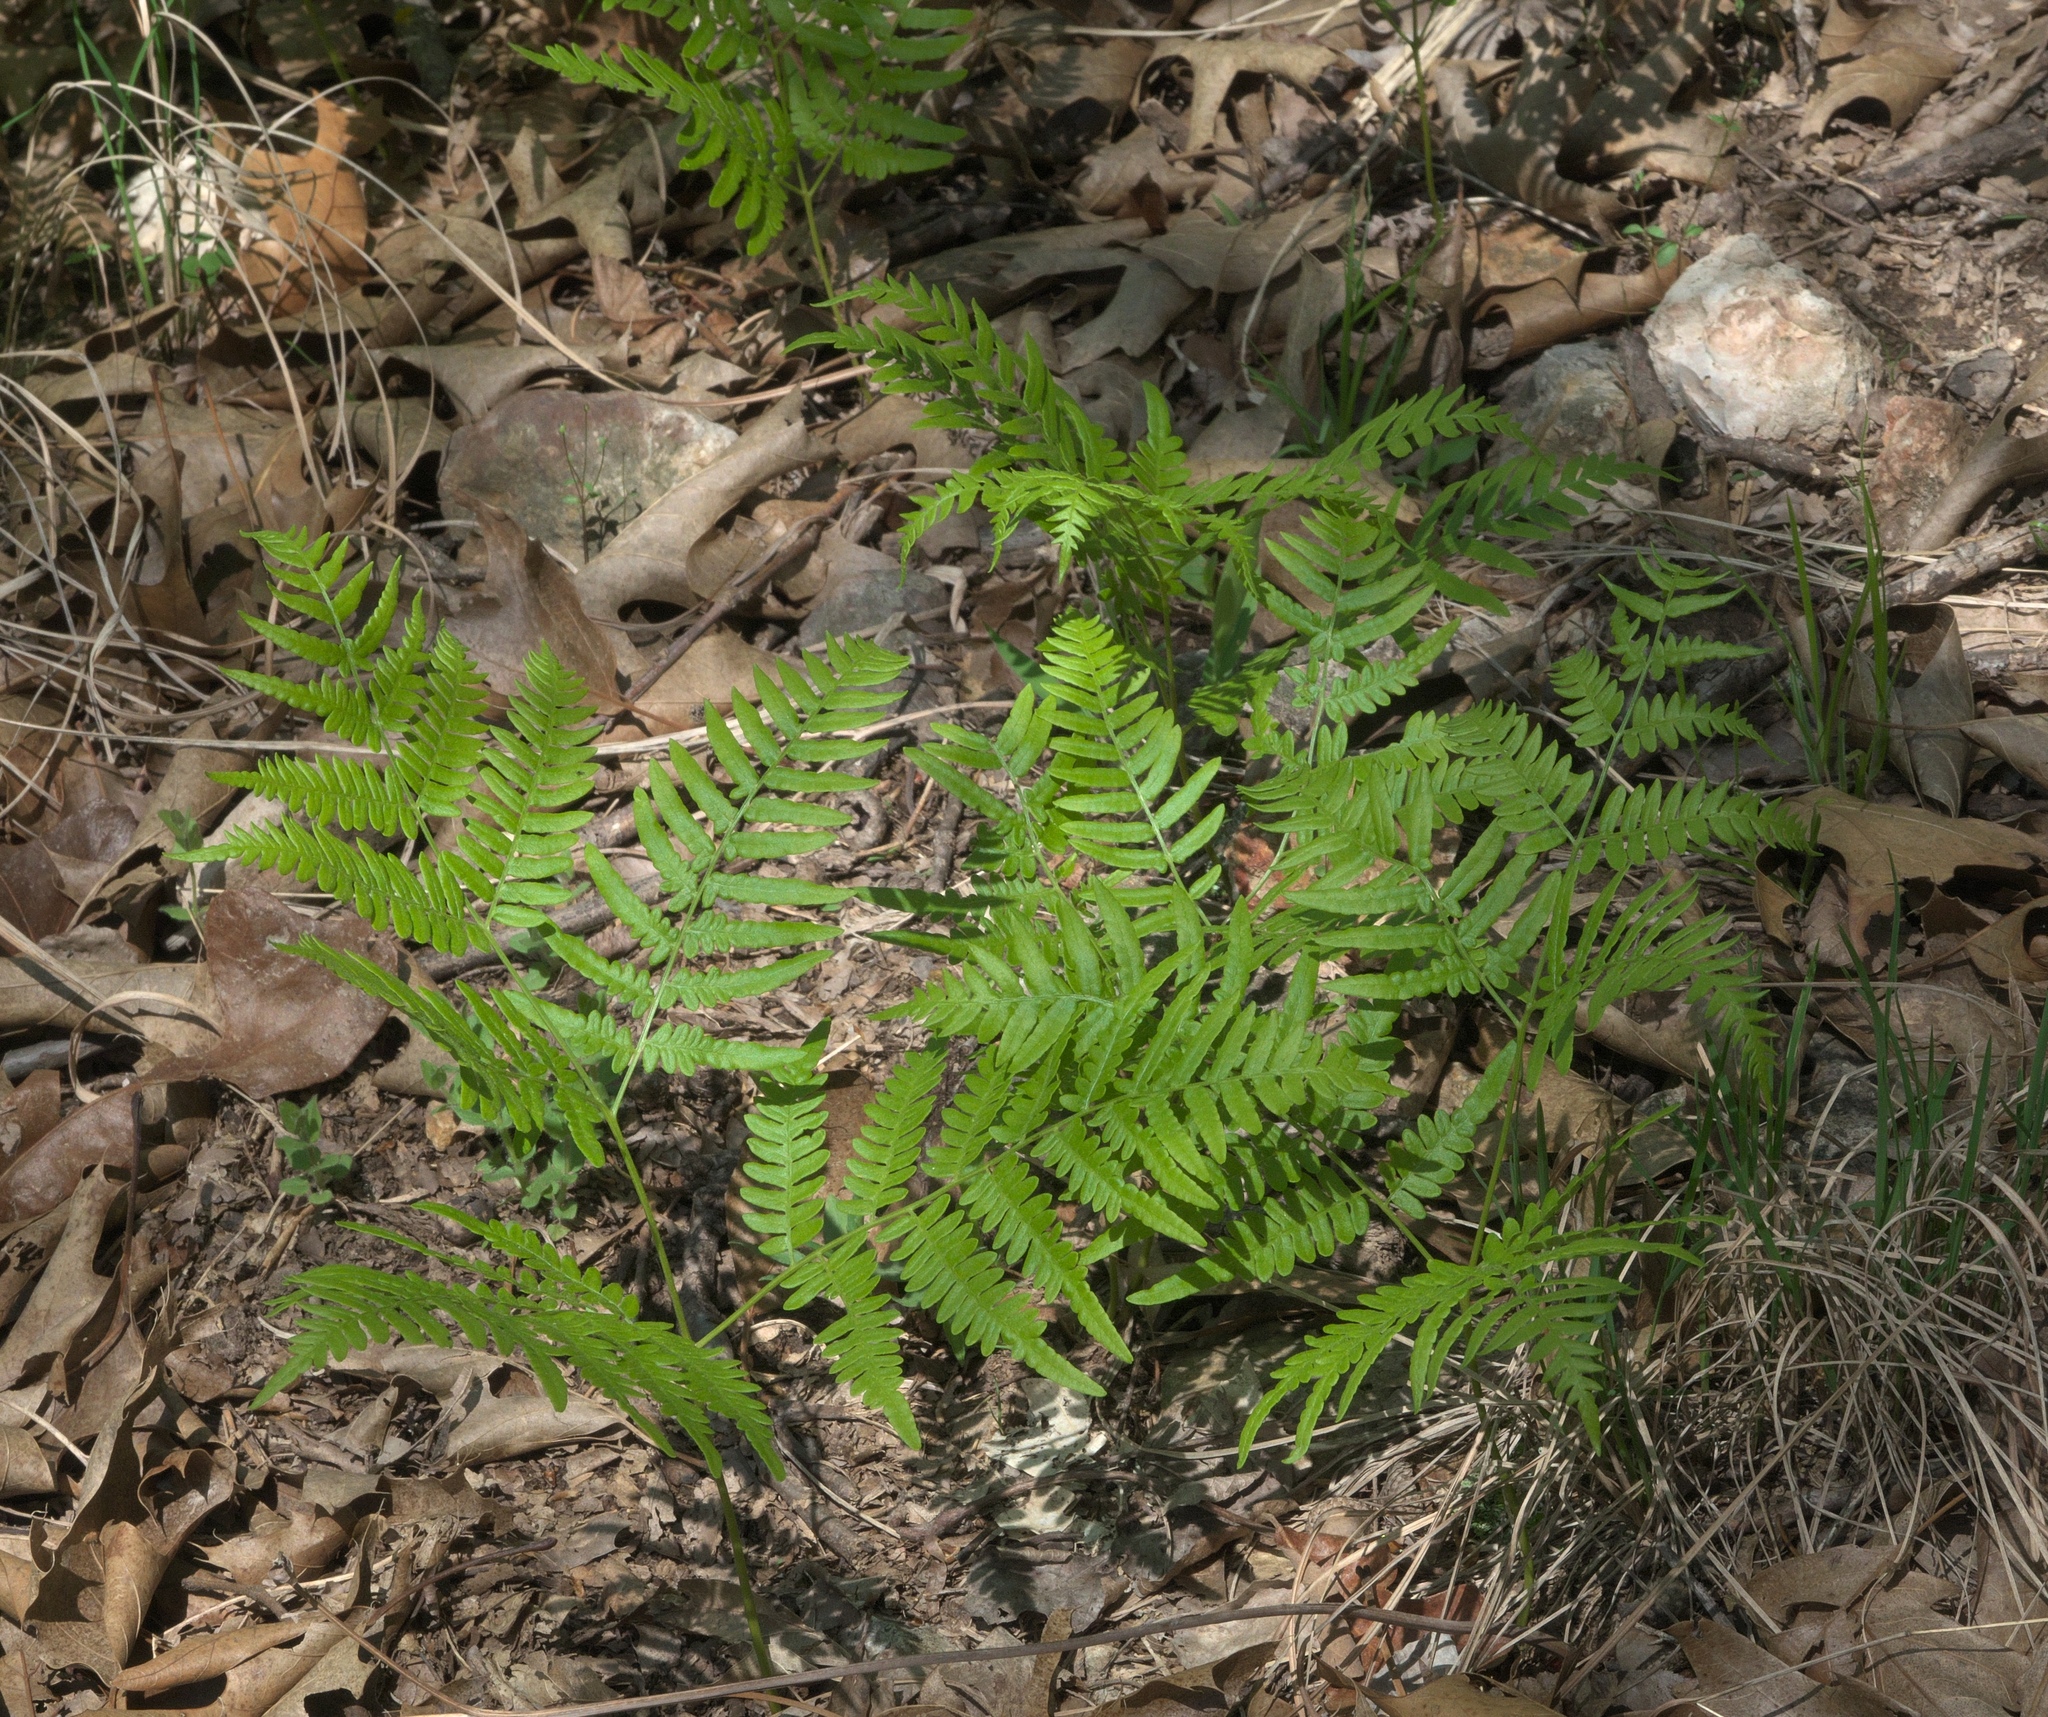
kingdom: Plantae
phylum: Tracheophyta
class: Polypodiopsida
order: Polypodiales
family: Dennstaedtiaceae
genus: Pteridium
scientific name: Pteridium aquilinum
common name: Bracken
